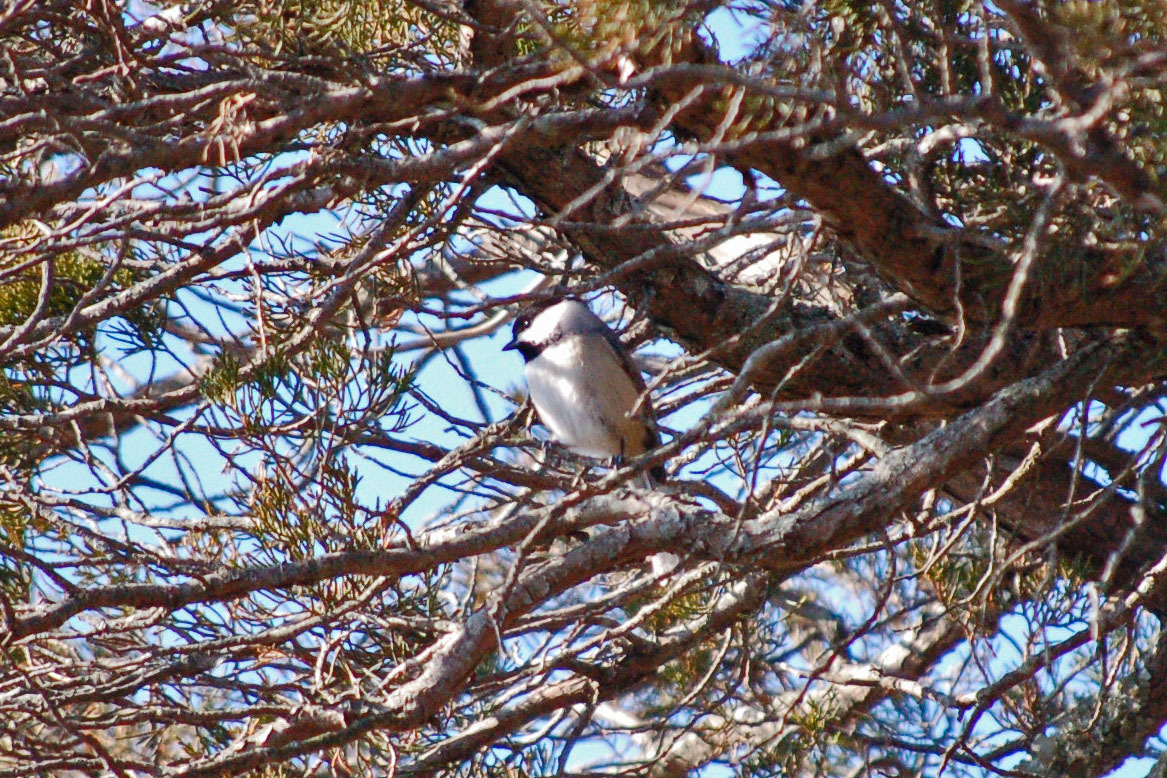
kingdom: Animalia
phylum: Chordata
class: Aves
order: Passeriformes
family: Paridae
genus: Poecile
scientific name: Poecile carolinensis
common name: Carolina chickadee
